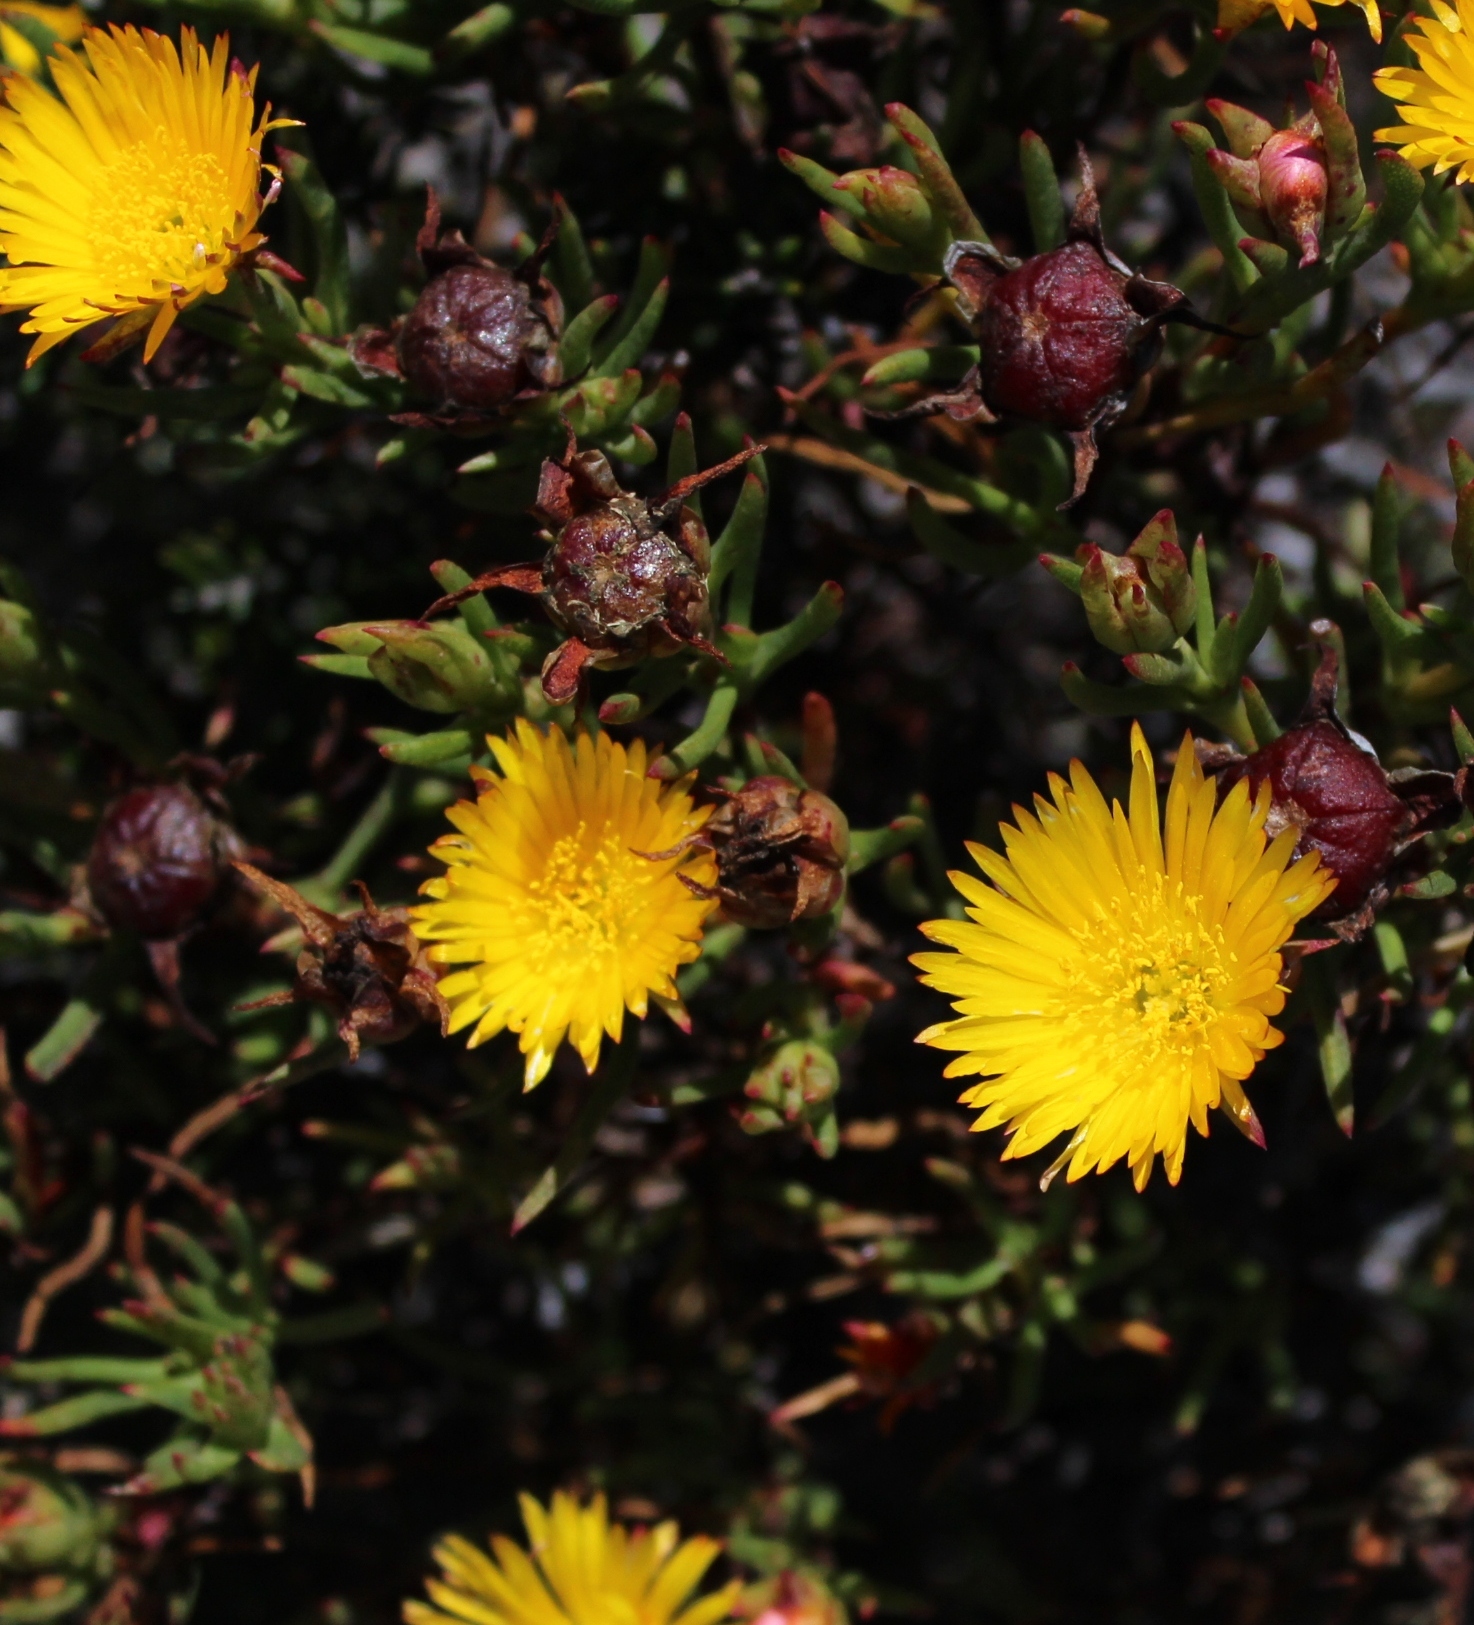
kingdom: Plantae
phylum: Tracheophyta
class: Magnoliopsida
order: Caryophyllales
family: Aizoaceae
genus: Lampranthus
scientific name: Lampranthus bicolor
